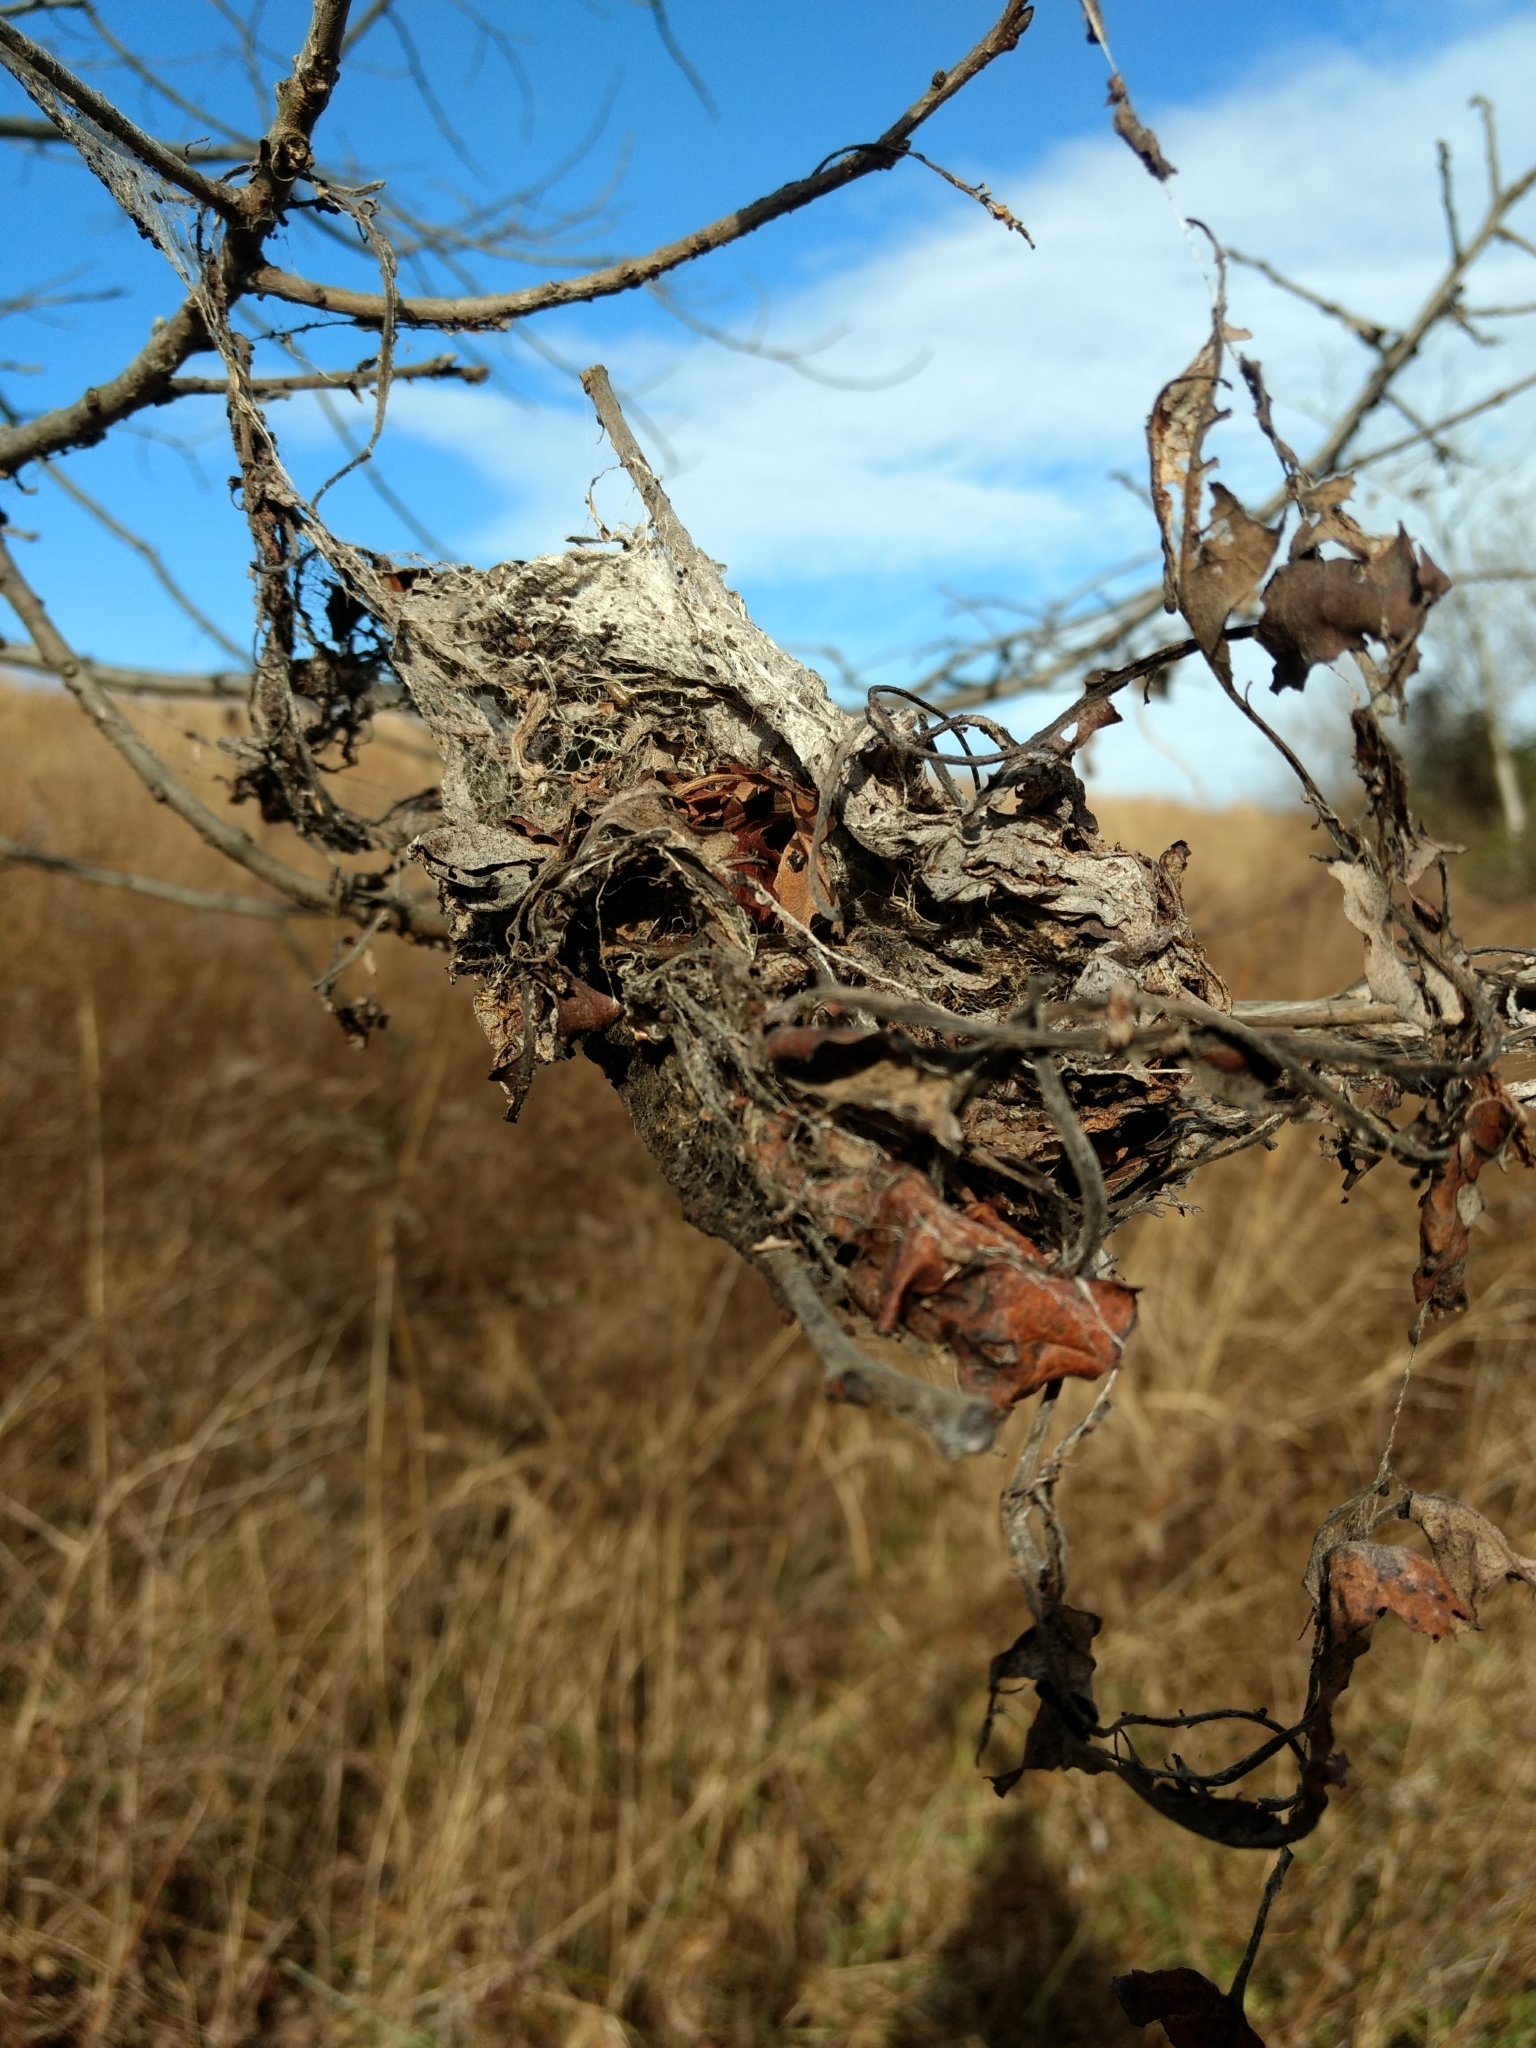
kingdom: Animalia
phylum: Arthropoda
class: Insecta
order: Lepidoptera
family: Erebidae
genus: Hyphantria
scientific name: Hyphantria cunea
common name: American white moth
